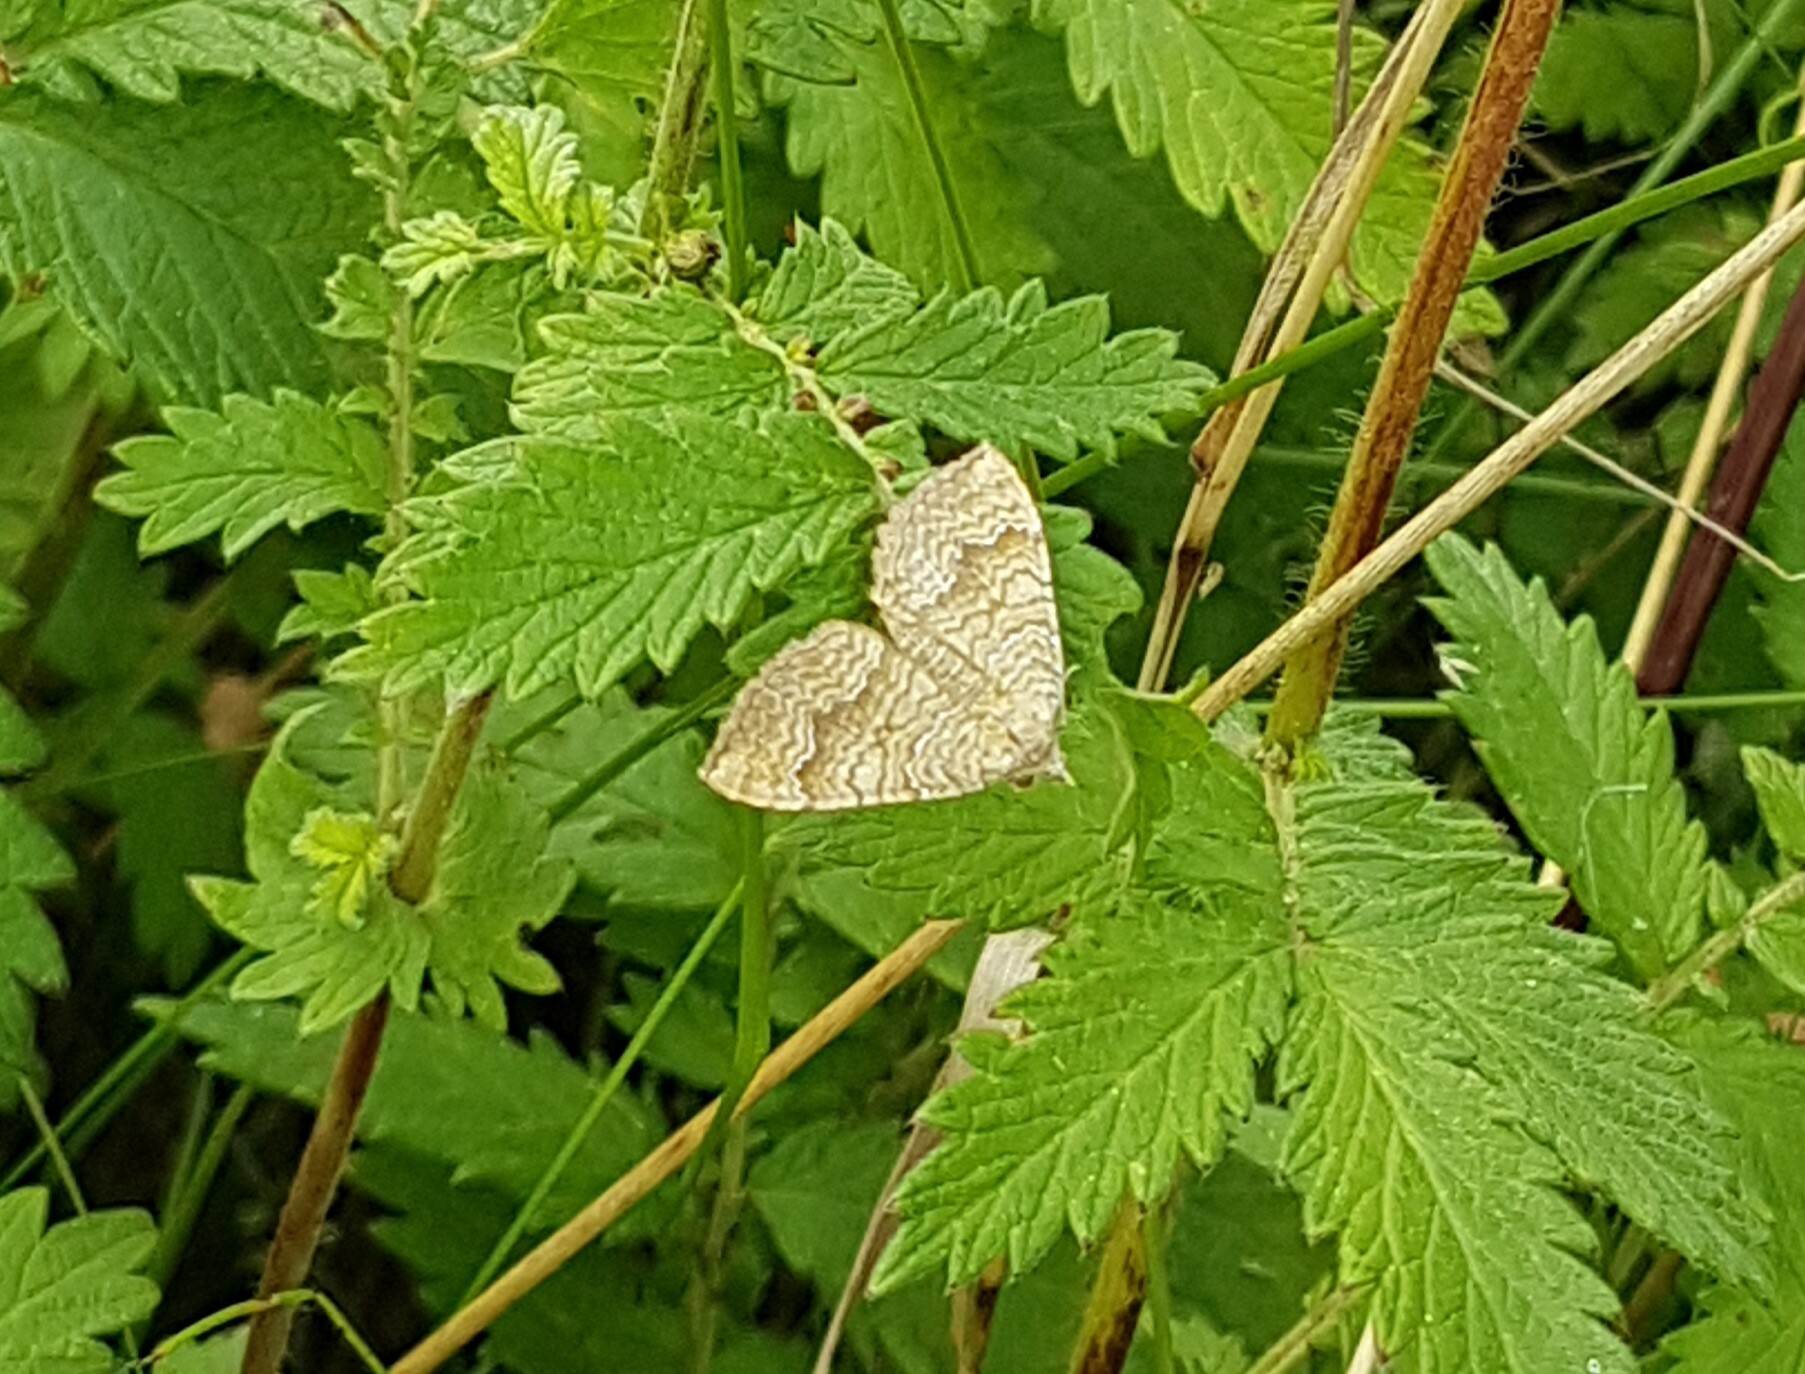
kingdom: Animalia
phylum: Arthropoda
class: Insecta
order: Lepidoptera
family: Geometridae
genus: Camptogramma
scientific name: Camptogramma bilineata
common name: Yellow shell
